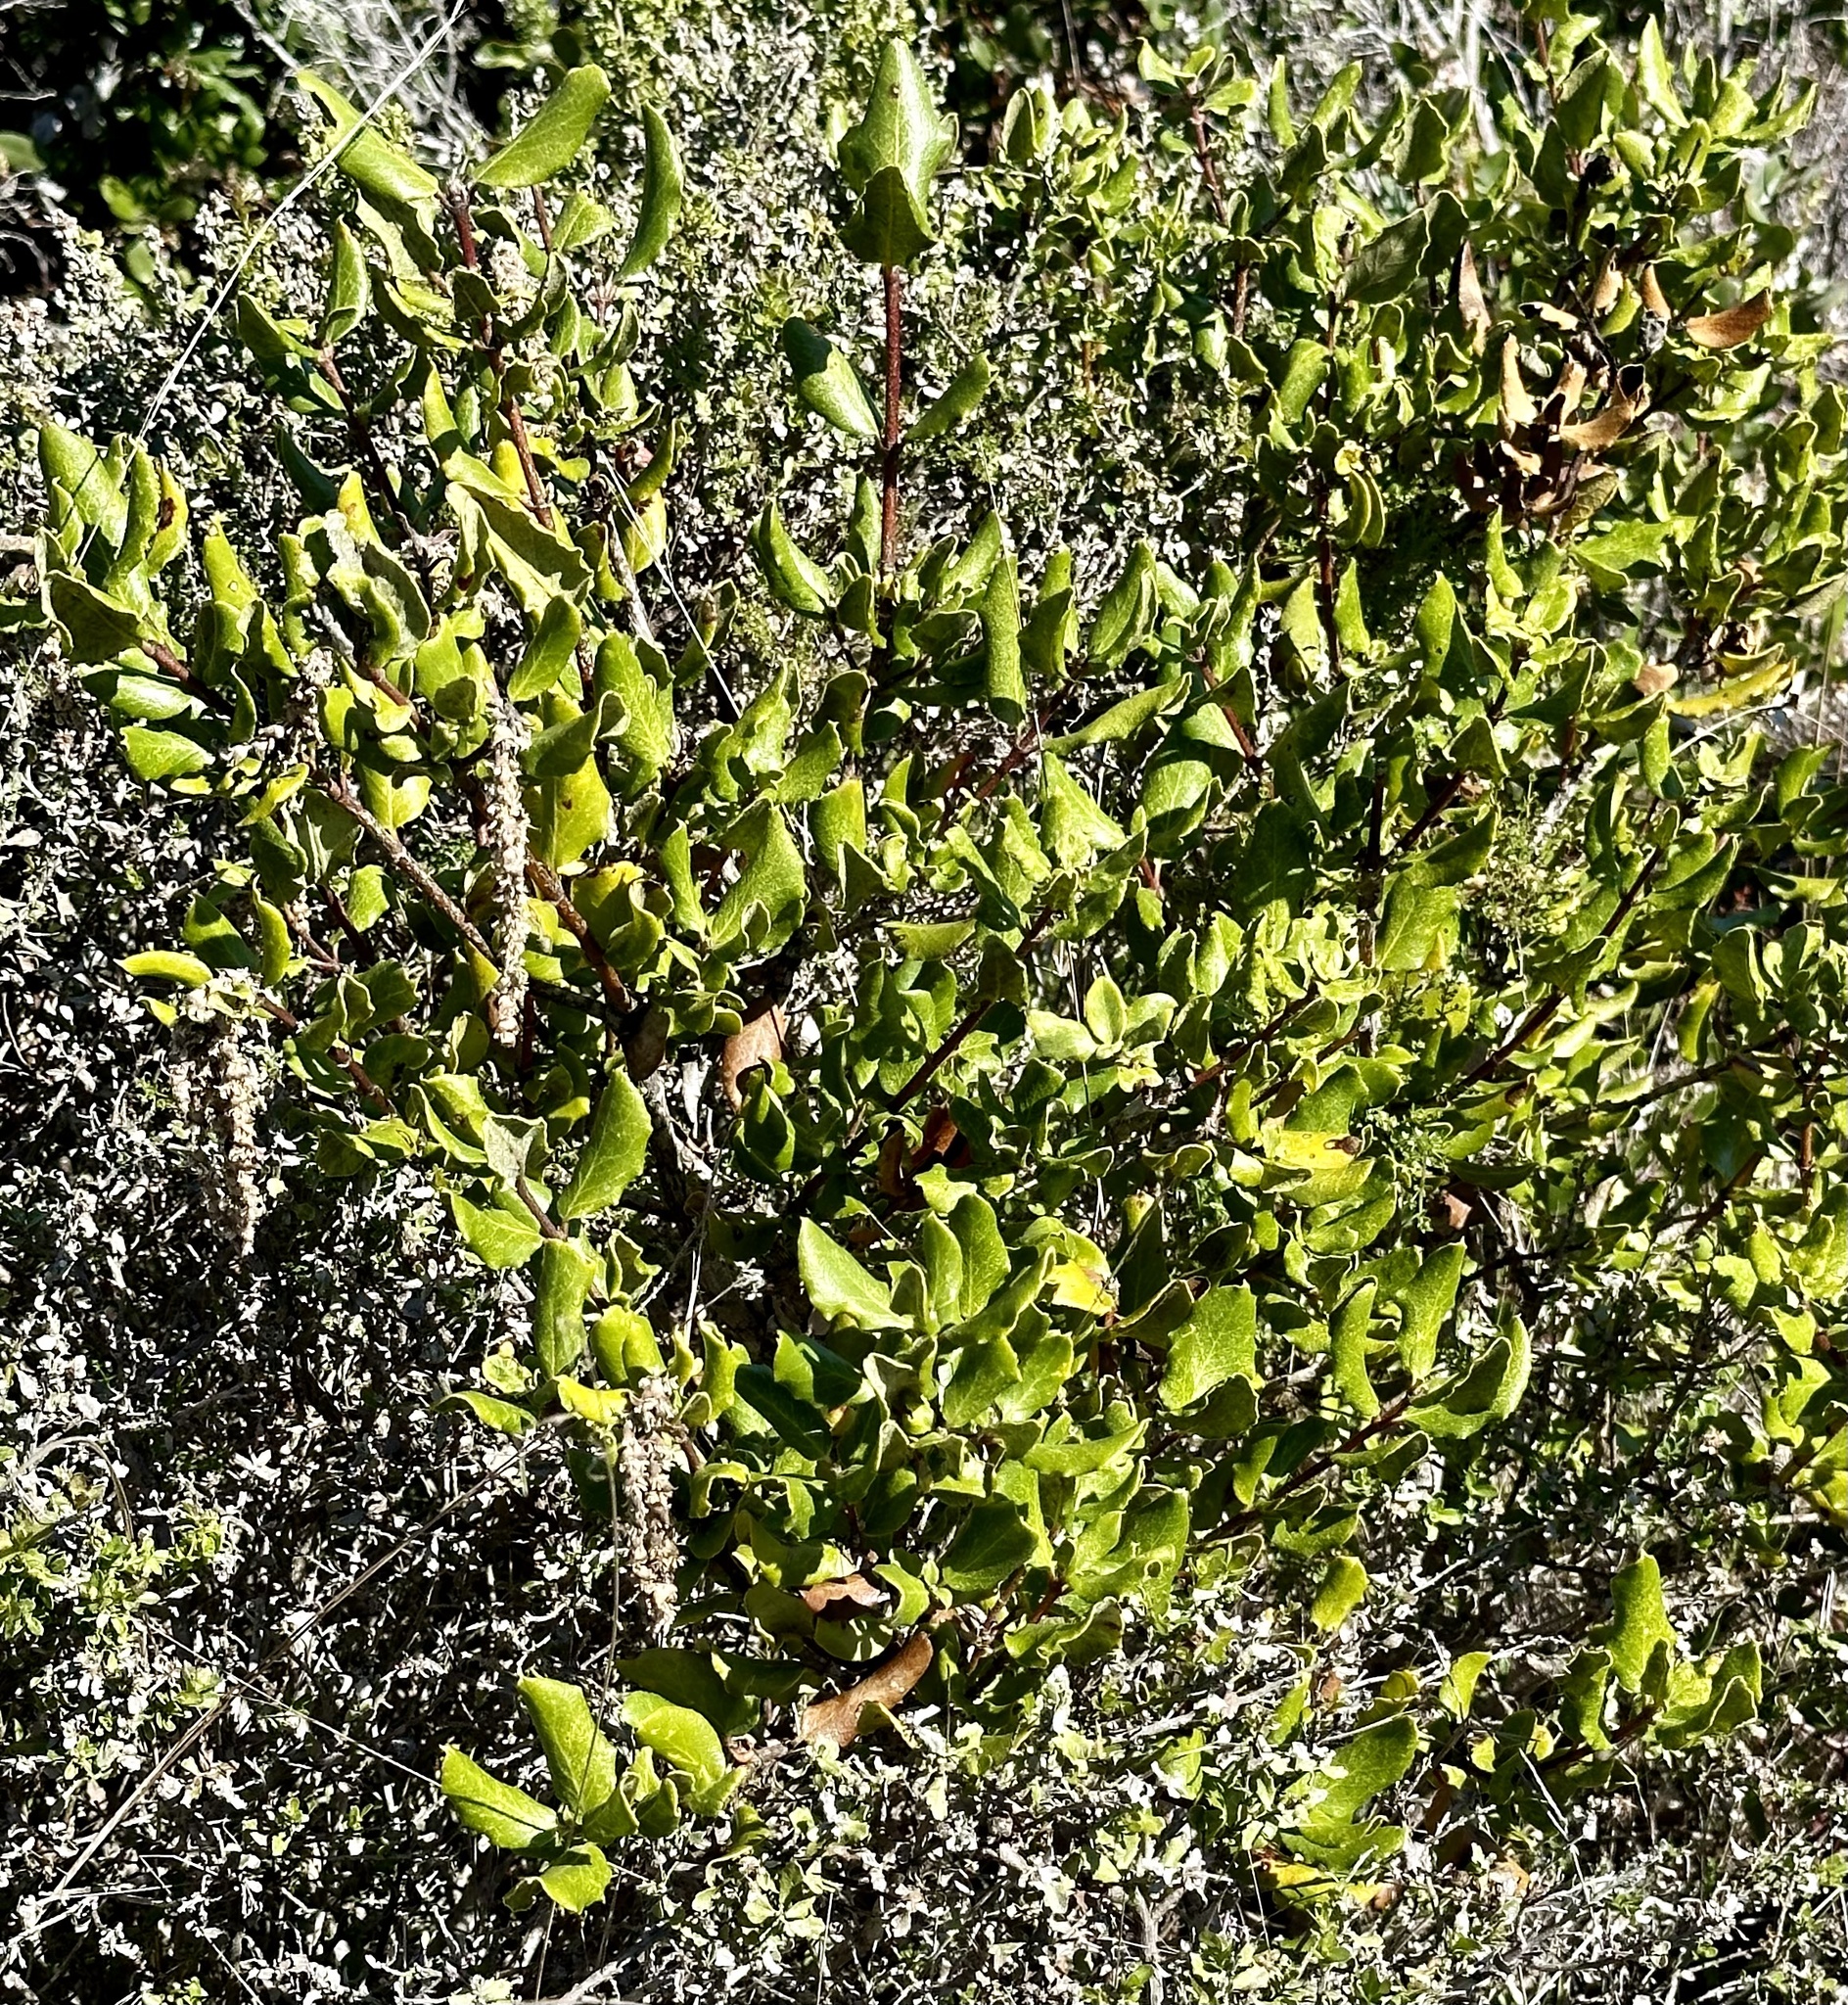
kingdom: Plantae
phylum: Tracheophyta
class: Magnoliopsida
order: Garryales
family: Garryaceae
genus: Garrya
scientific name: Garrya elliptica
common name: Silk-tassel
